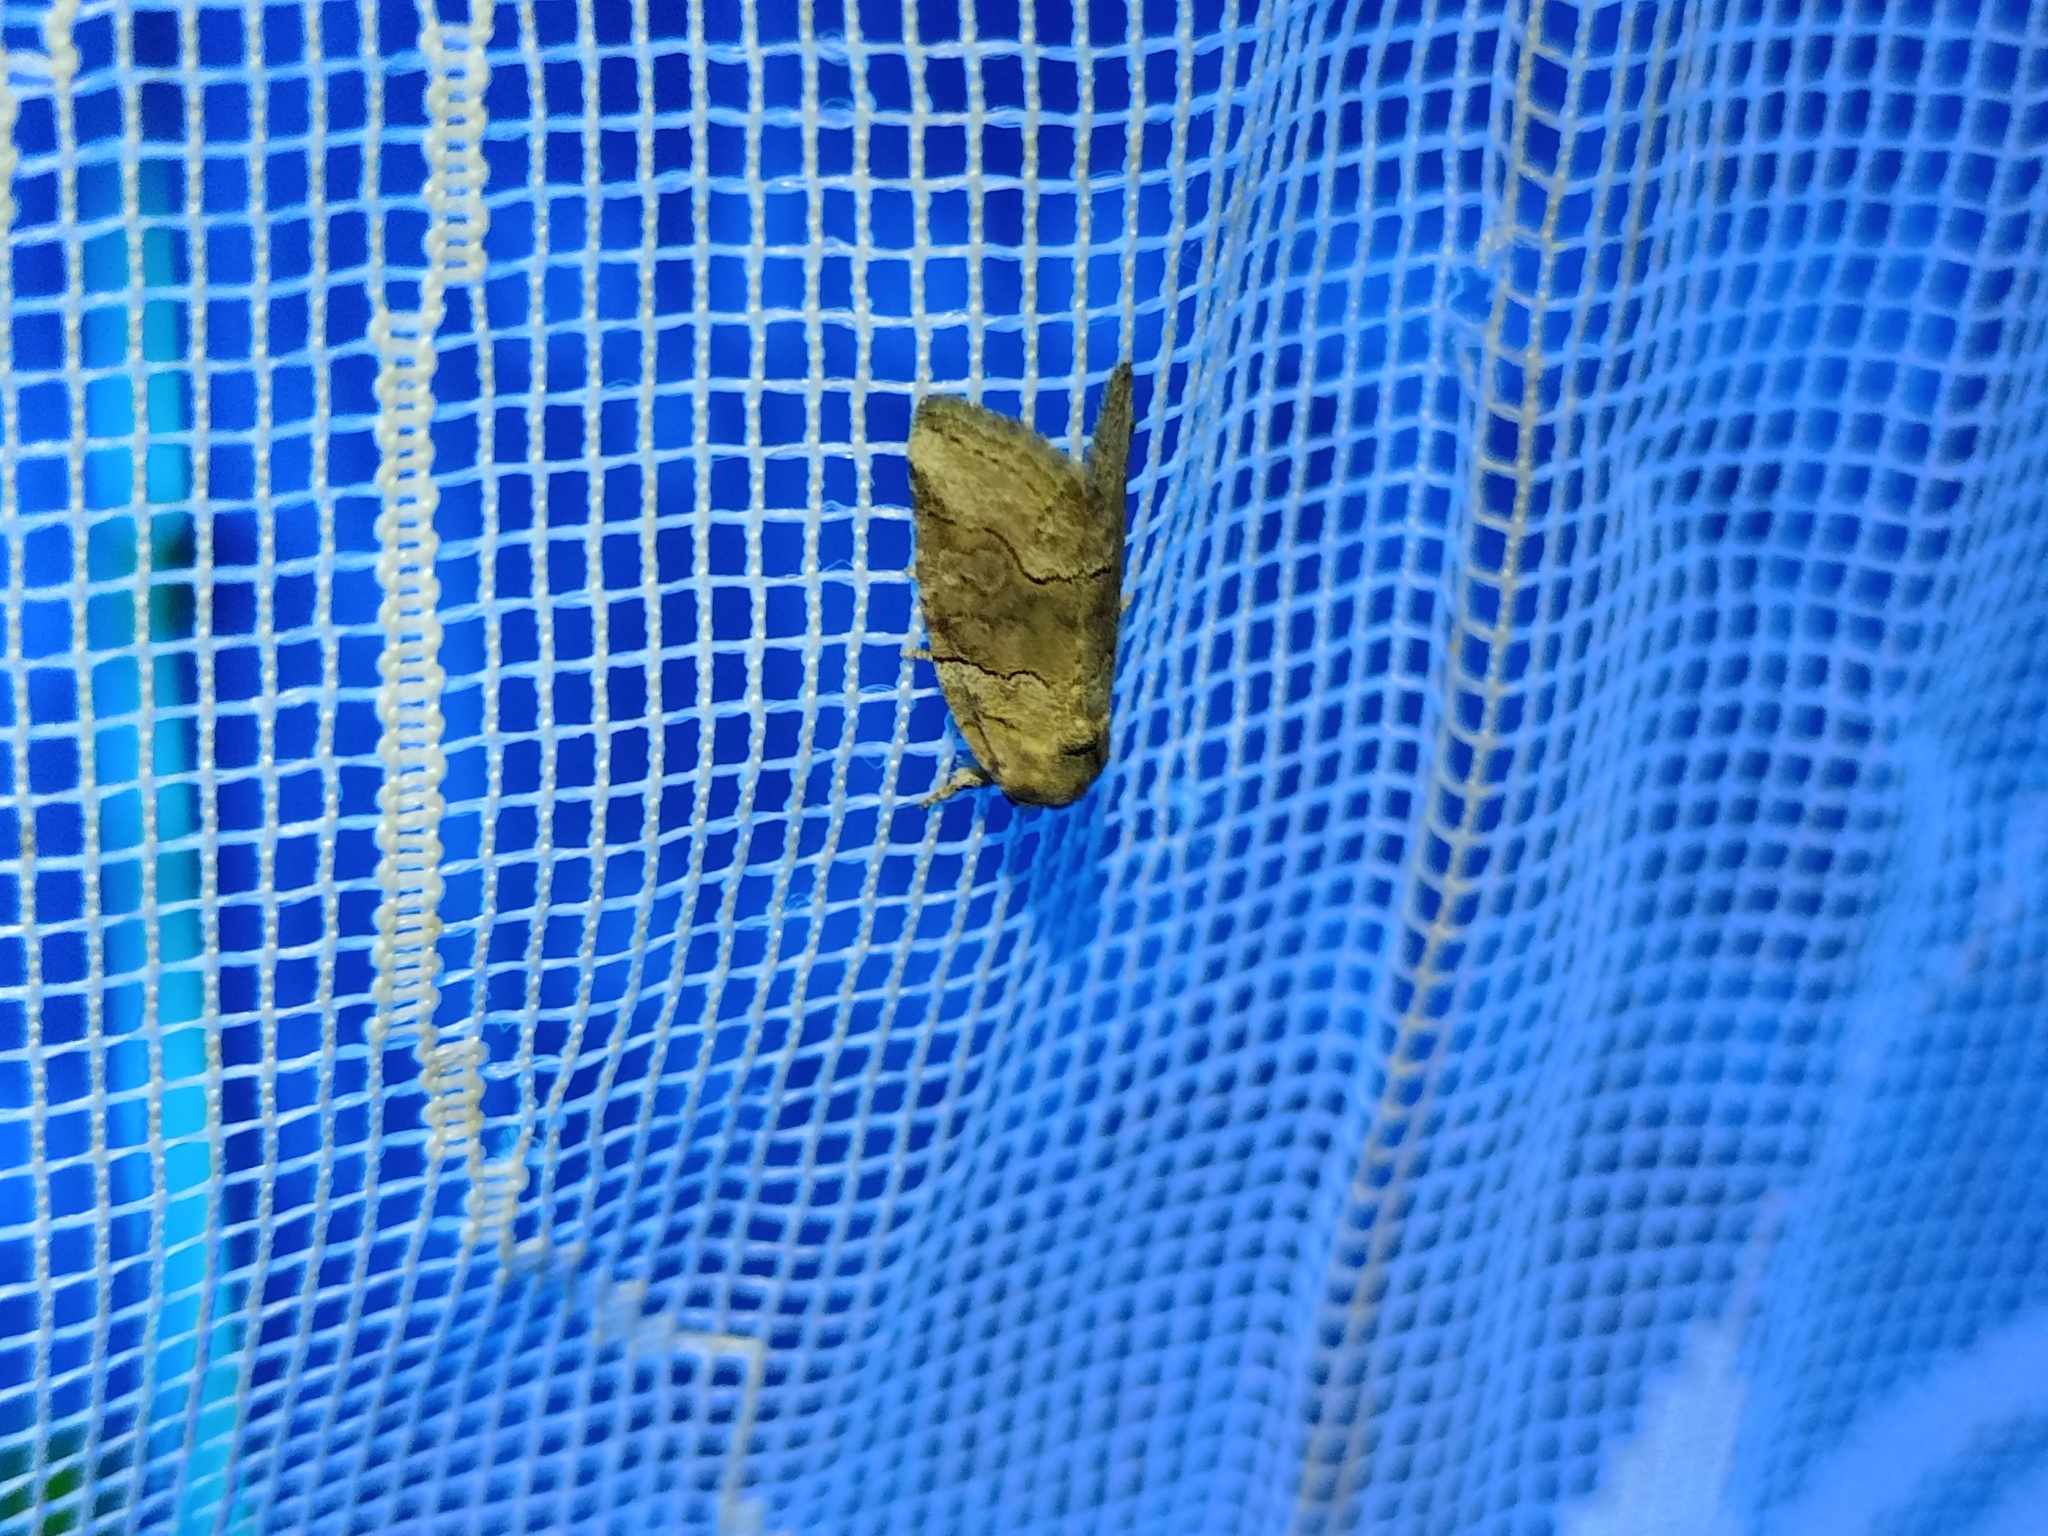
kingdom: Animalia
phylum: Arthropoda
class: Insecta
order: Lepidoptera
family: Noctuidae
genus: Bryophila
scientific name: Bryophila microphysa
